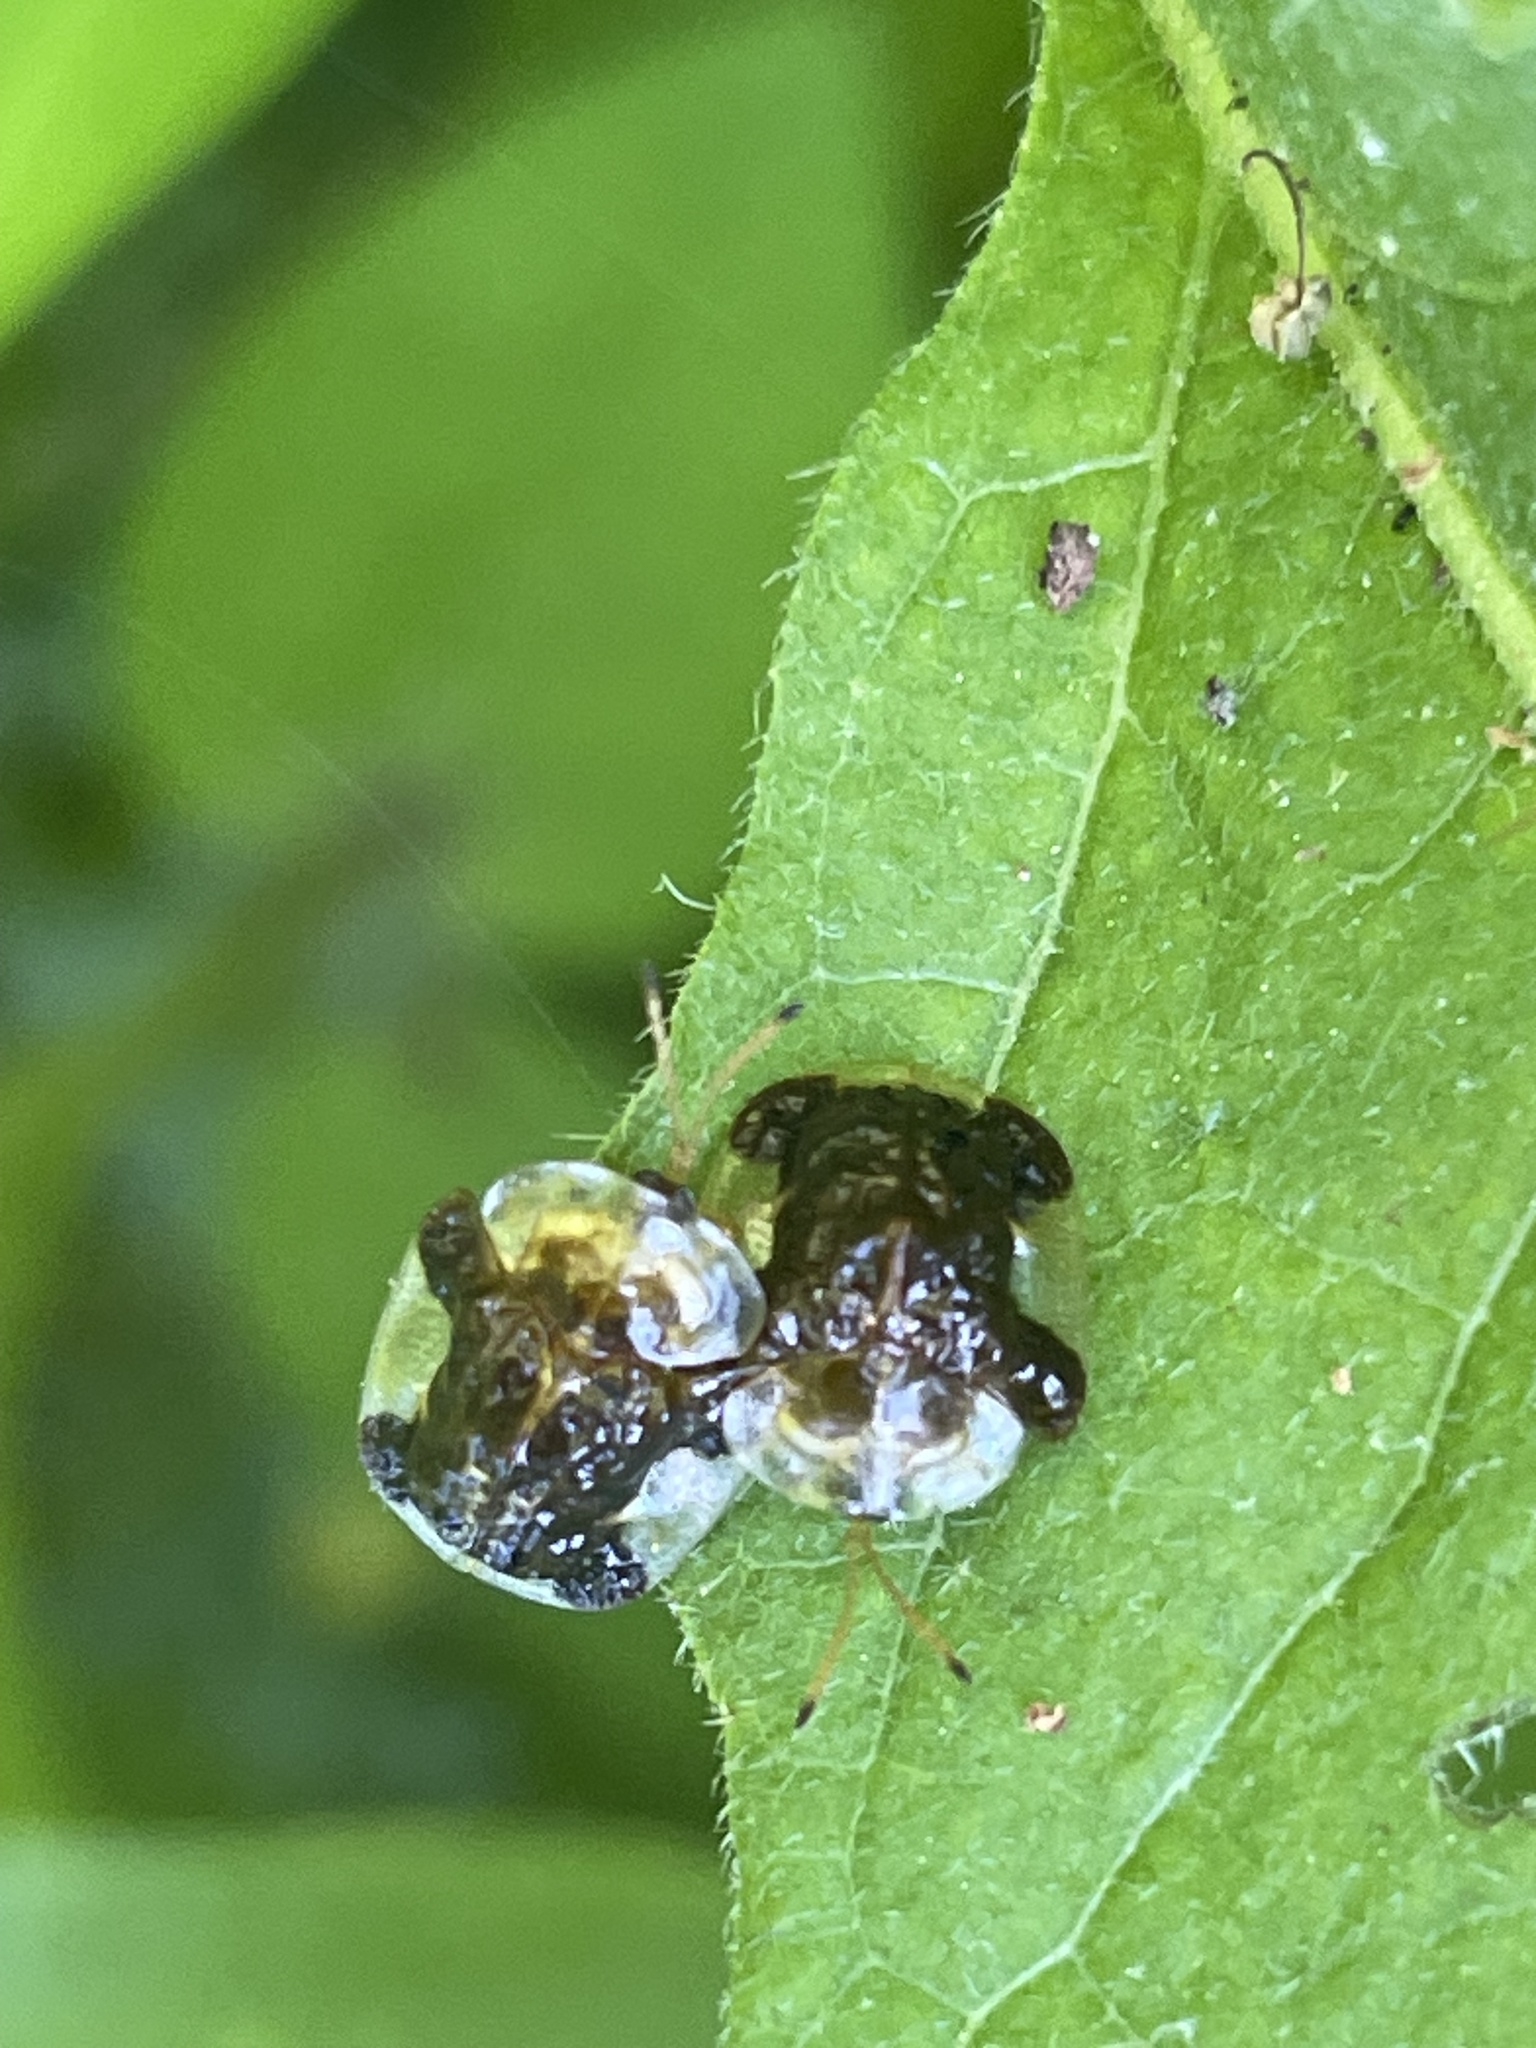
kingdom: Animalia
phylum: Arthropoda
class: Insecta
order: Coleoptera
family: Chrysomelidae
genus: Helocassis
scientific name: Helocassis clavata
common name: Clavate tortoise beetle
